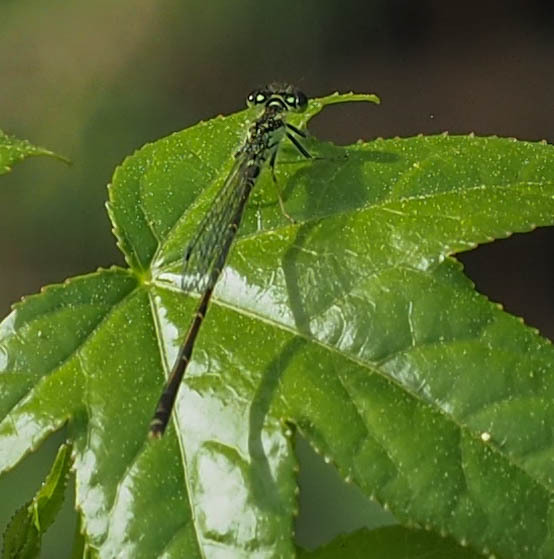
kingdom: Animalia
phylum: Arthropoda
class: Insecta
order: Odonata
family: Coenagrionidae
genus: Ischnura
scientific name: Ischnura posita
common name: Fragile forktail
